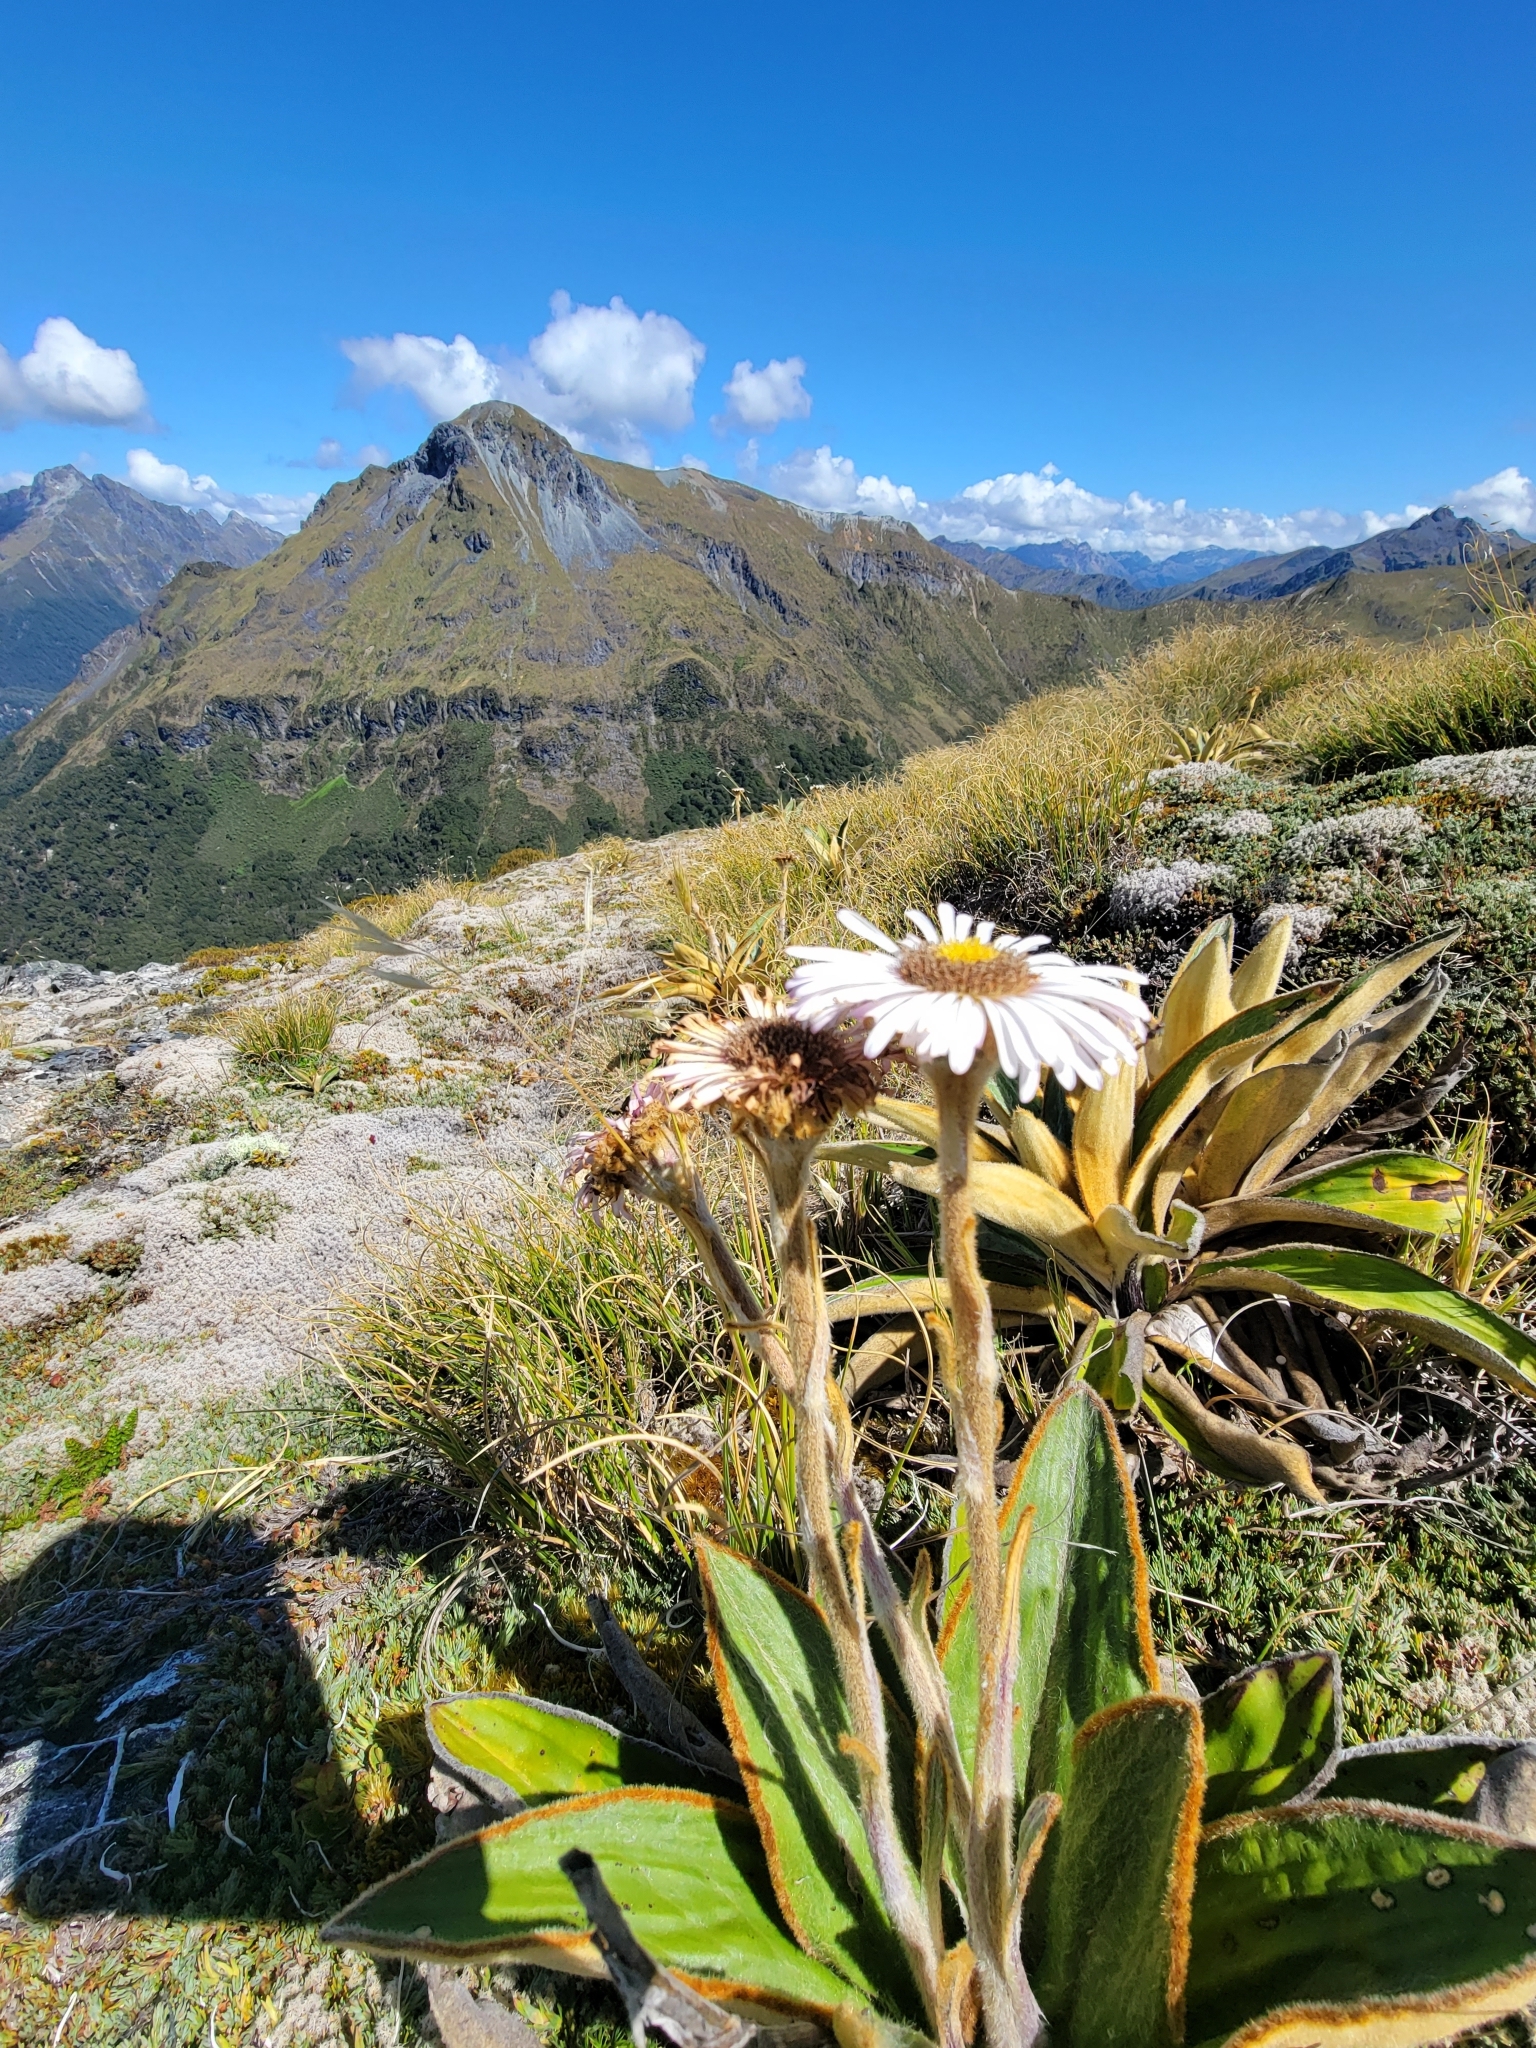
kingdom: Plantae
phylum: Tracheophyta
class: Magnoliopsida
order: Asterales
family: Asteraceae
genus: Celmisia
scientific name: Celmisia traversii
